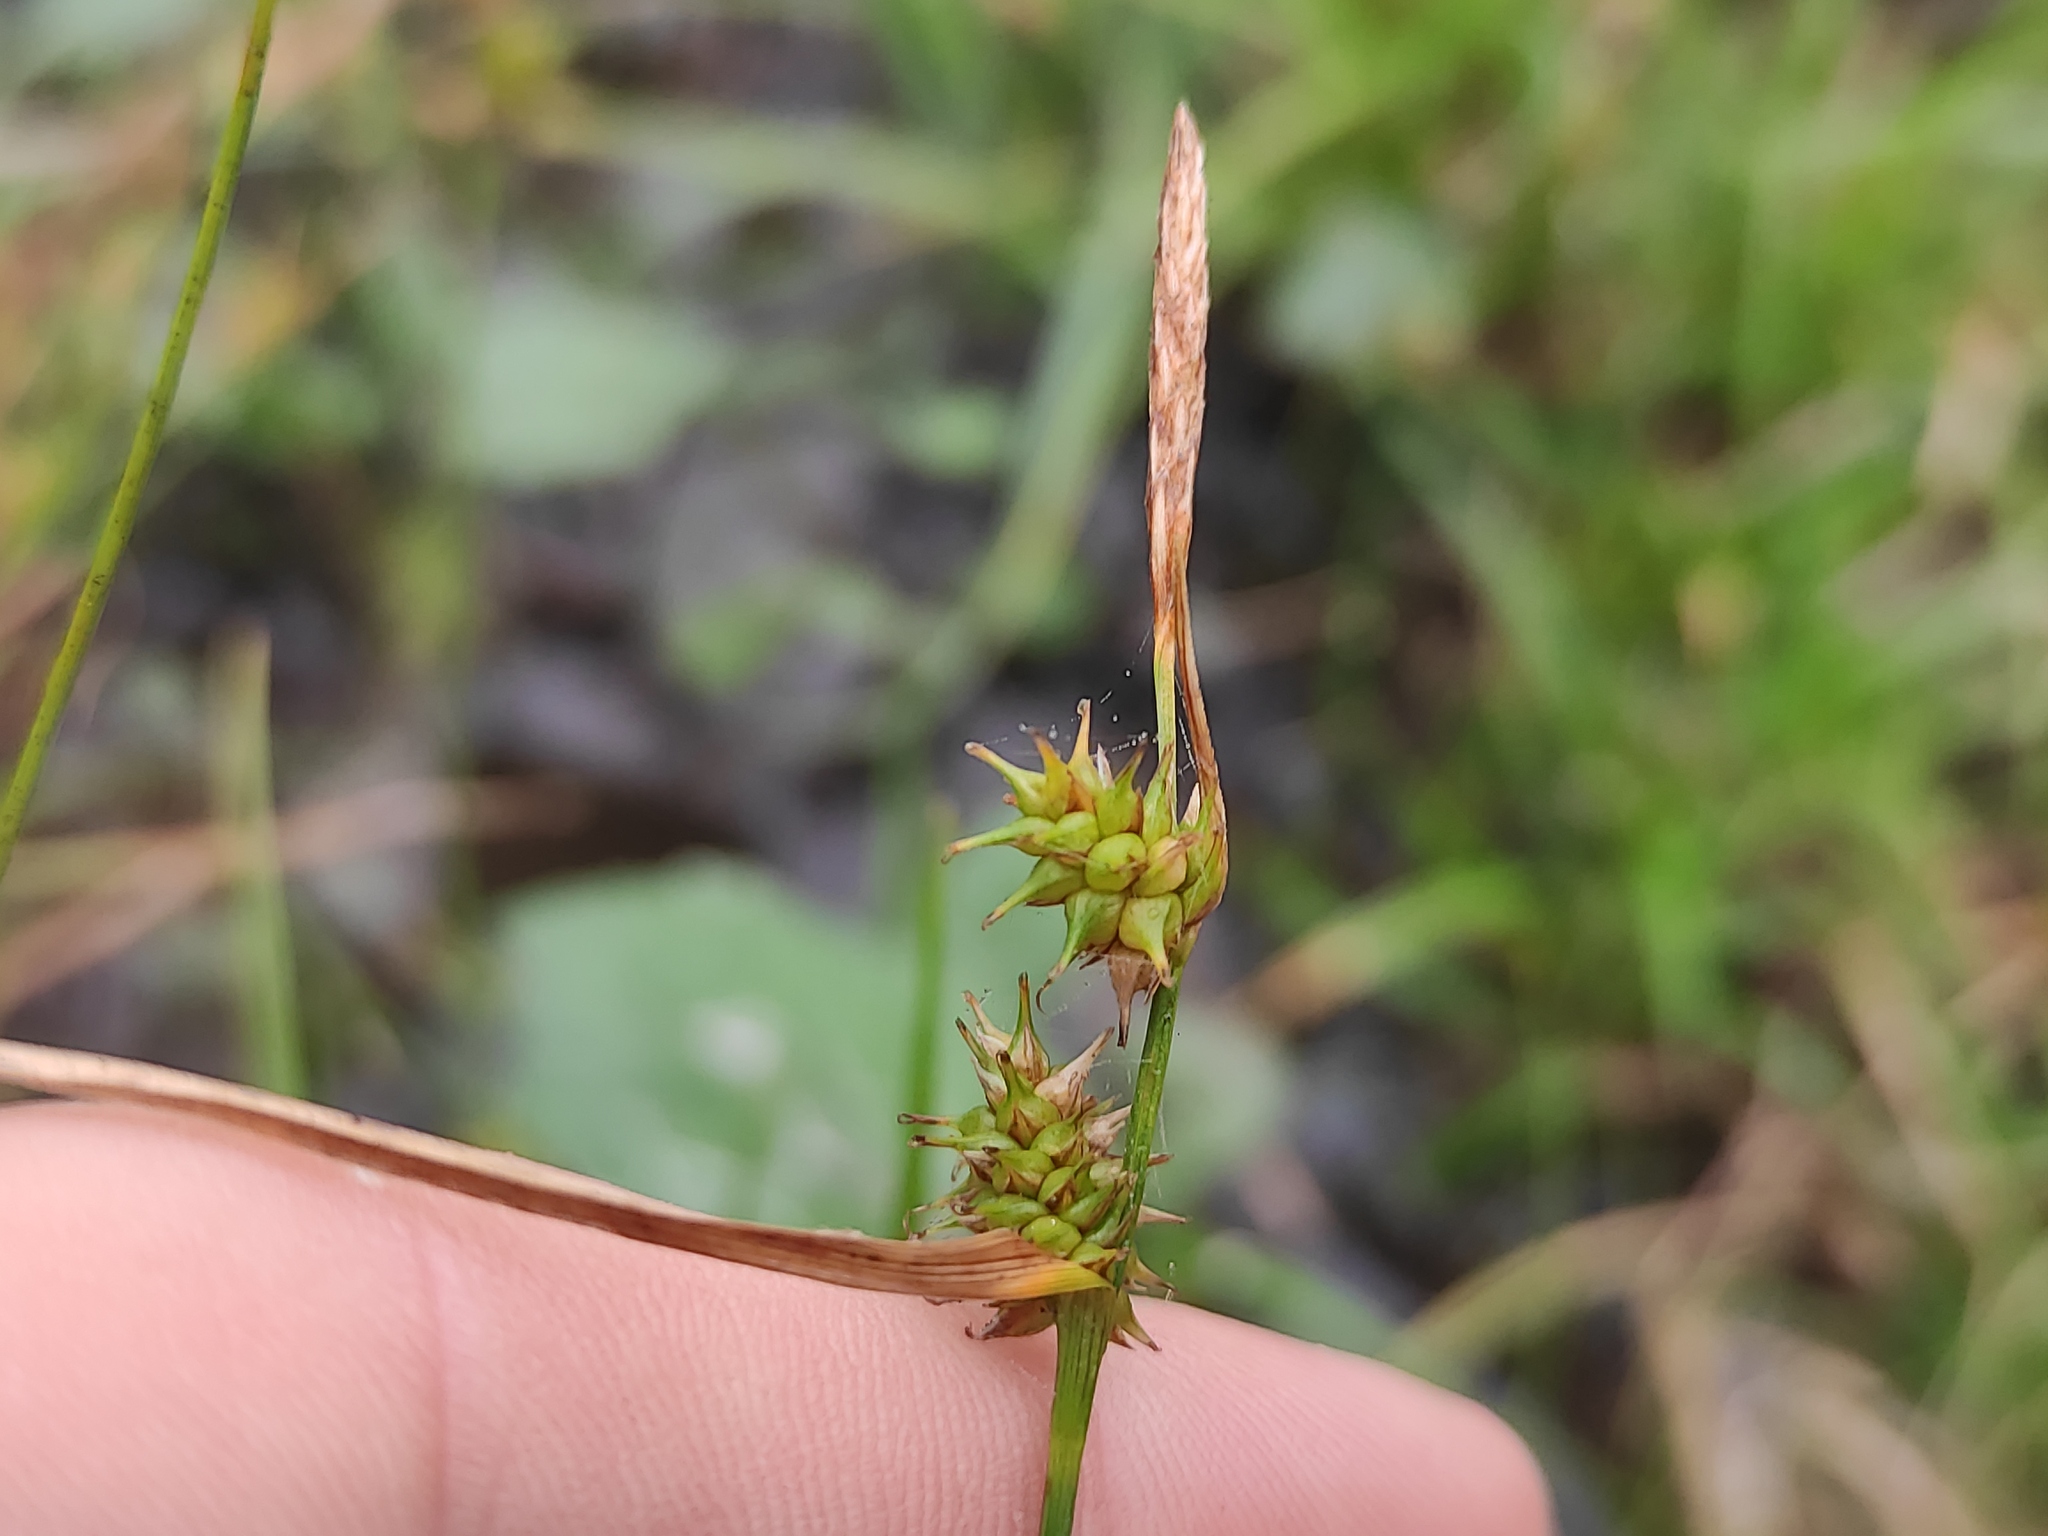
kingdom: Plantae
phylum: Tracheophyta
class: Liliopsida
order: Poales
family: Cyperaceae
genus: Carex
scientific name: Carex demissa
